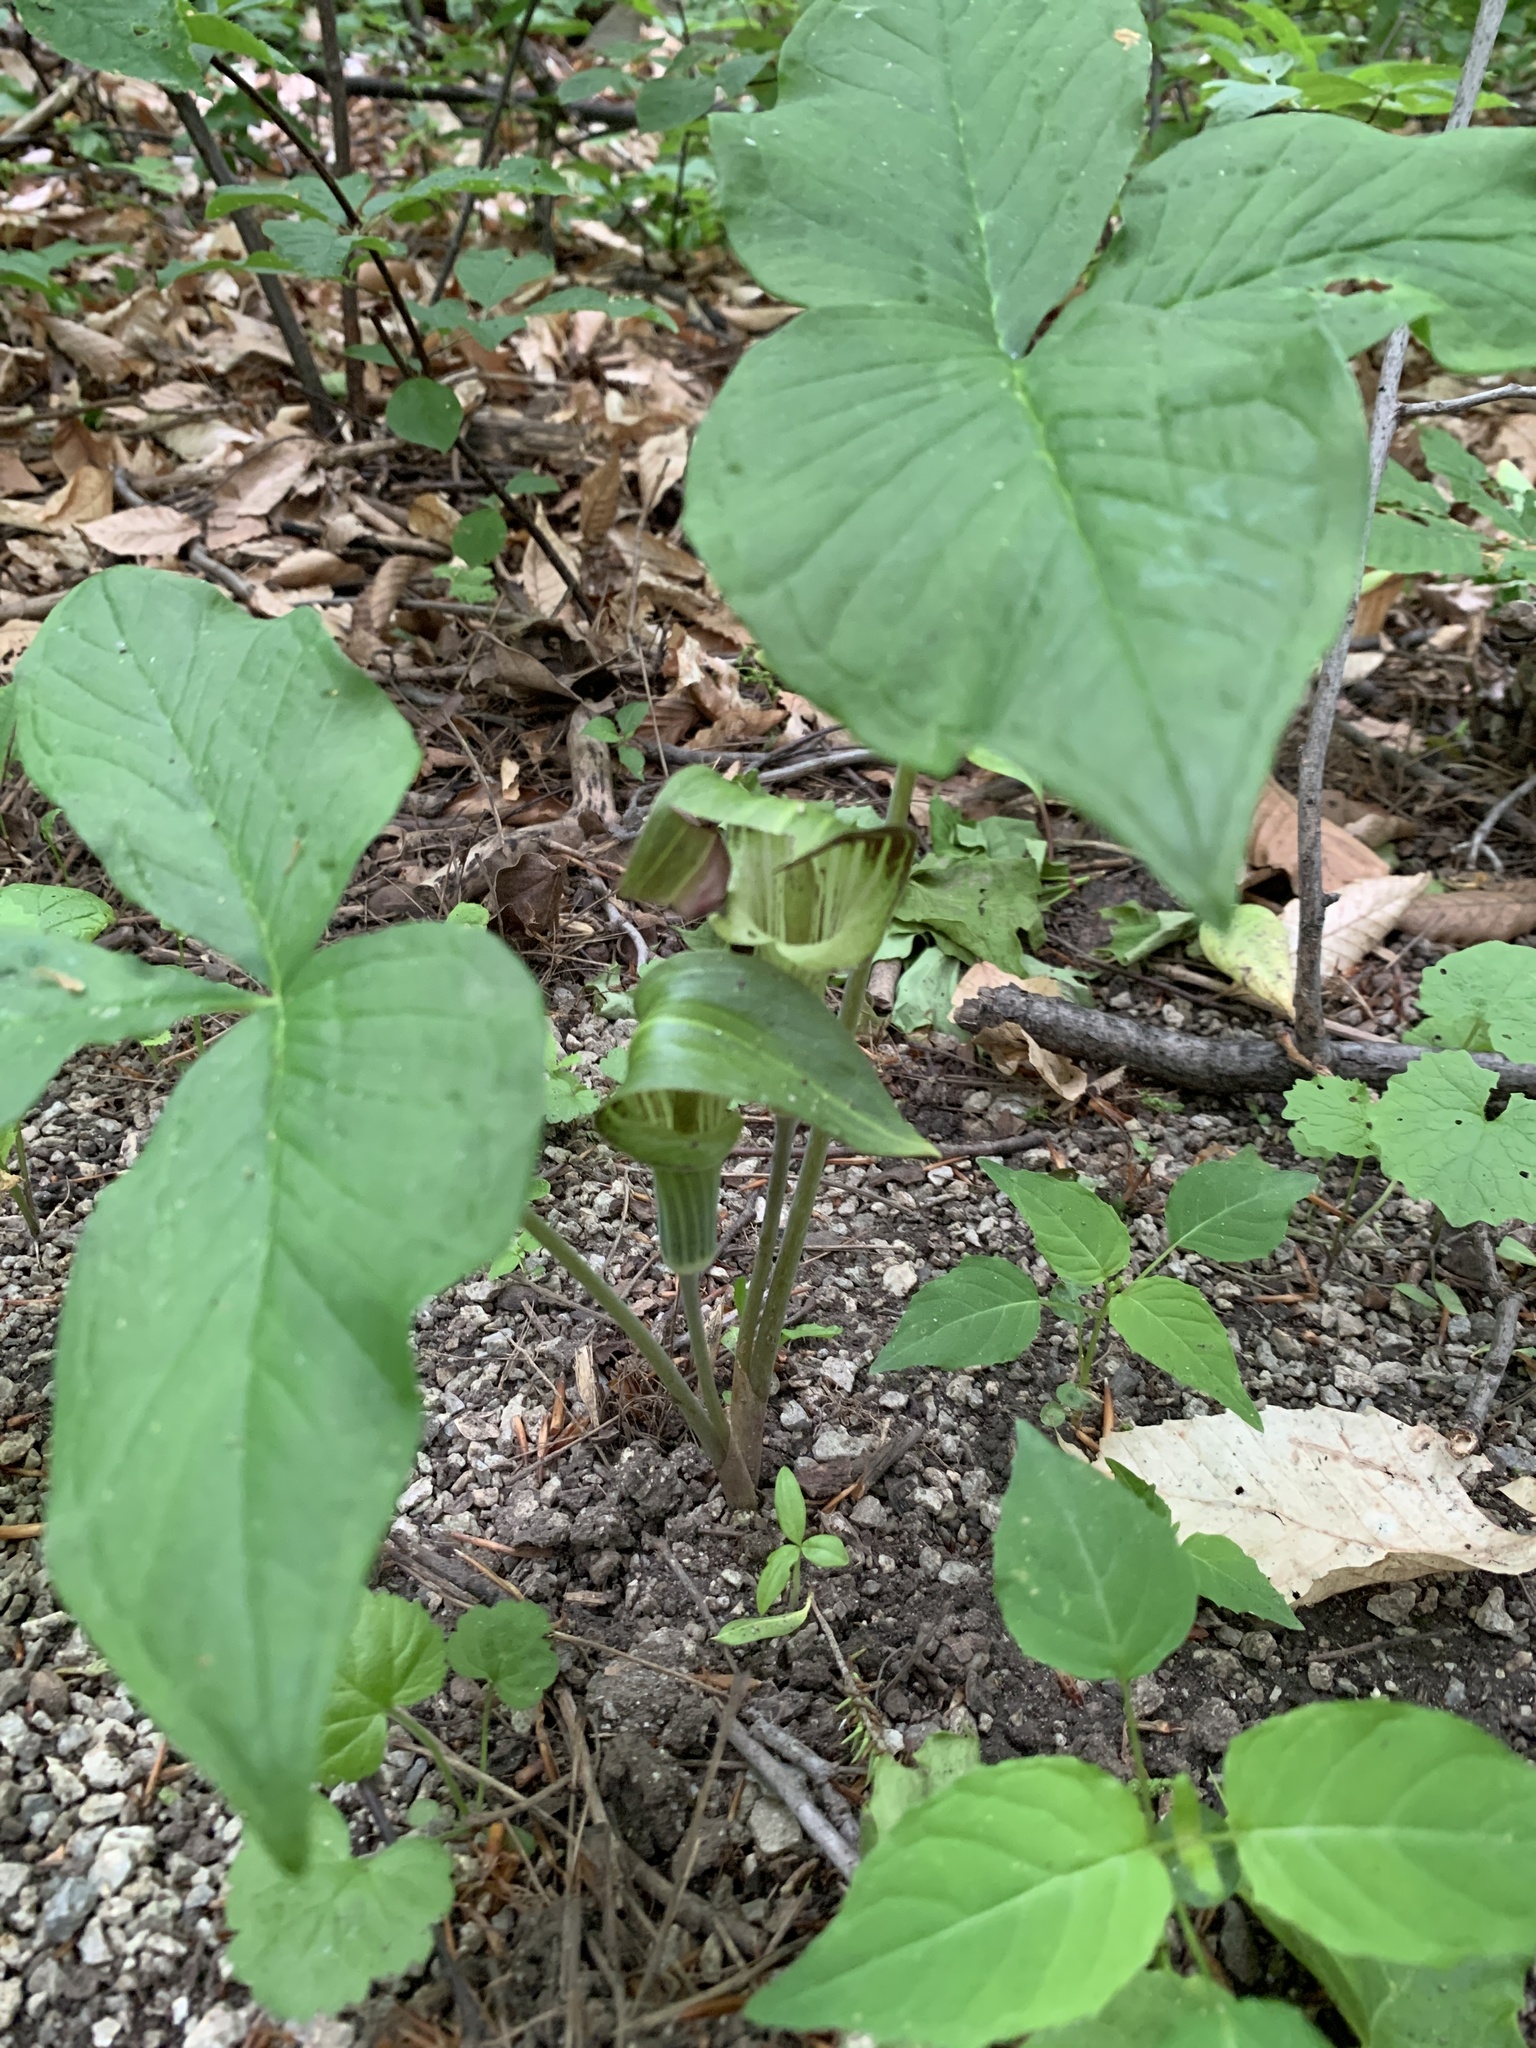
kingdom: Plantae
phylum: Tracheophyta
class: Liliopsida
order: Alismatales
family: Araceae
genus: Arisaema
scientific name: Arisaema triphyllum
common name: Jack-in-the-pulpit
